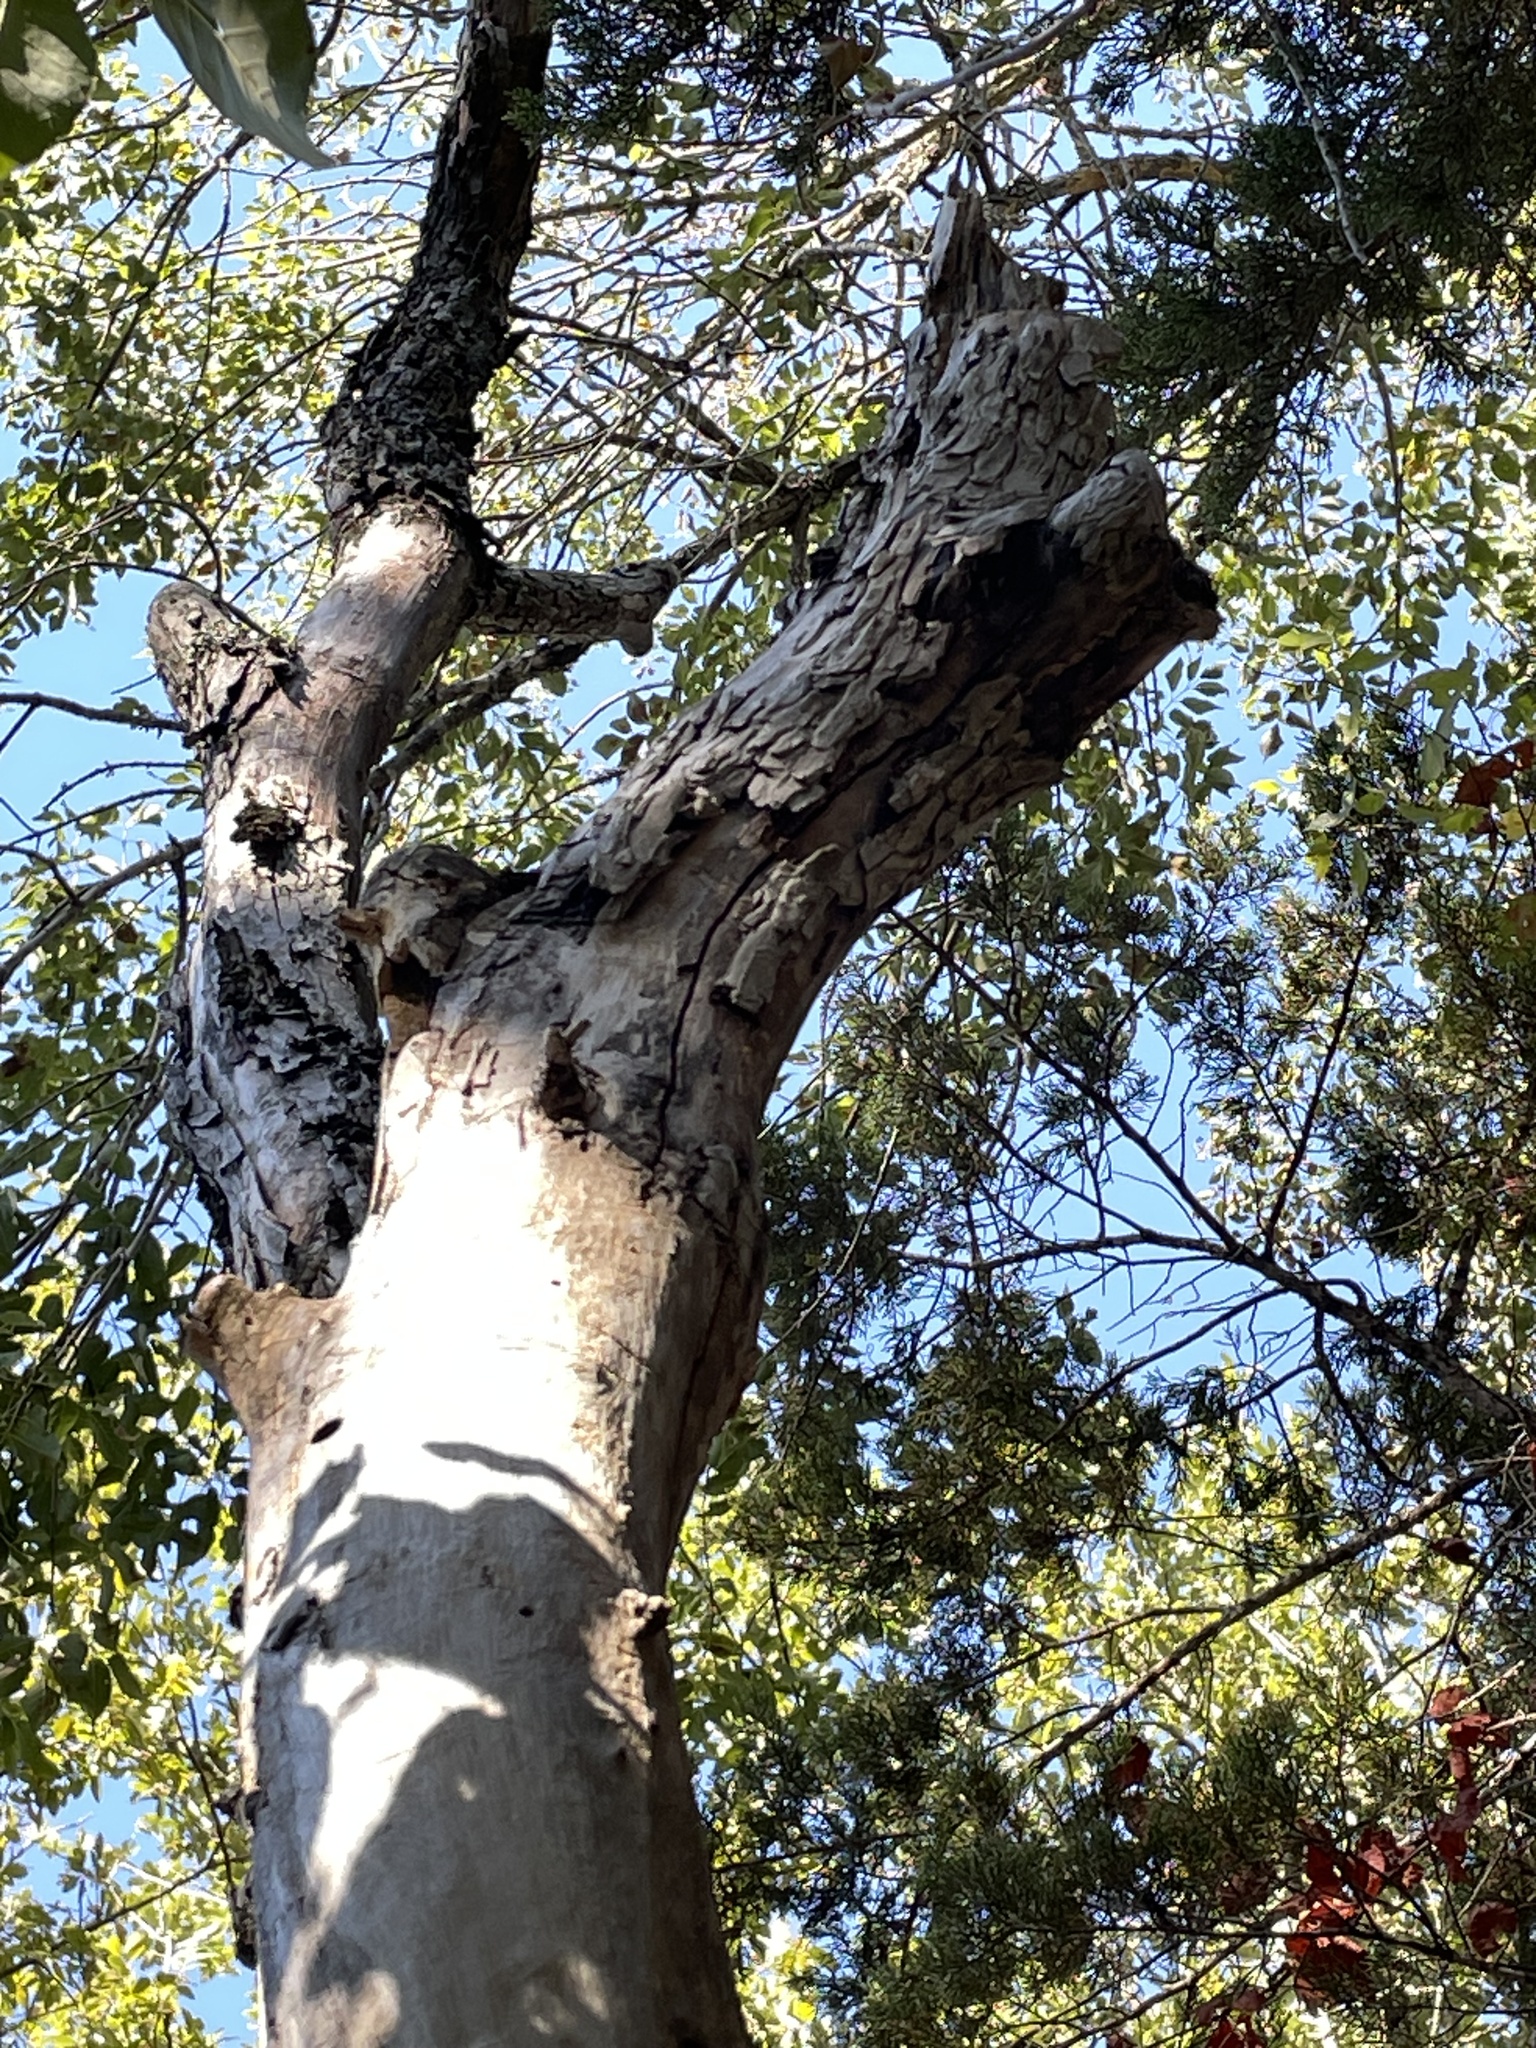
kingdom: Plantae
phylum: Tracheophyta
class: Magnoliopsida
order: Rosales
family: Ulmaceae
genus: Ulmus
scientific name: Ulmus crassifolia
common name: Basket elm
